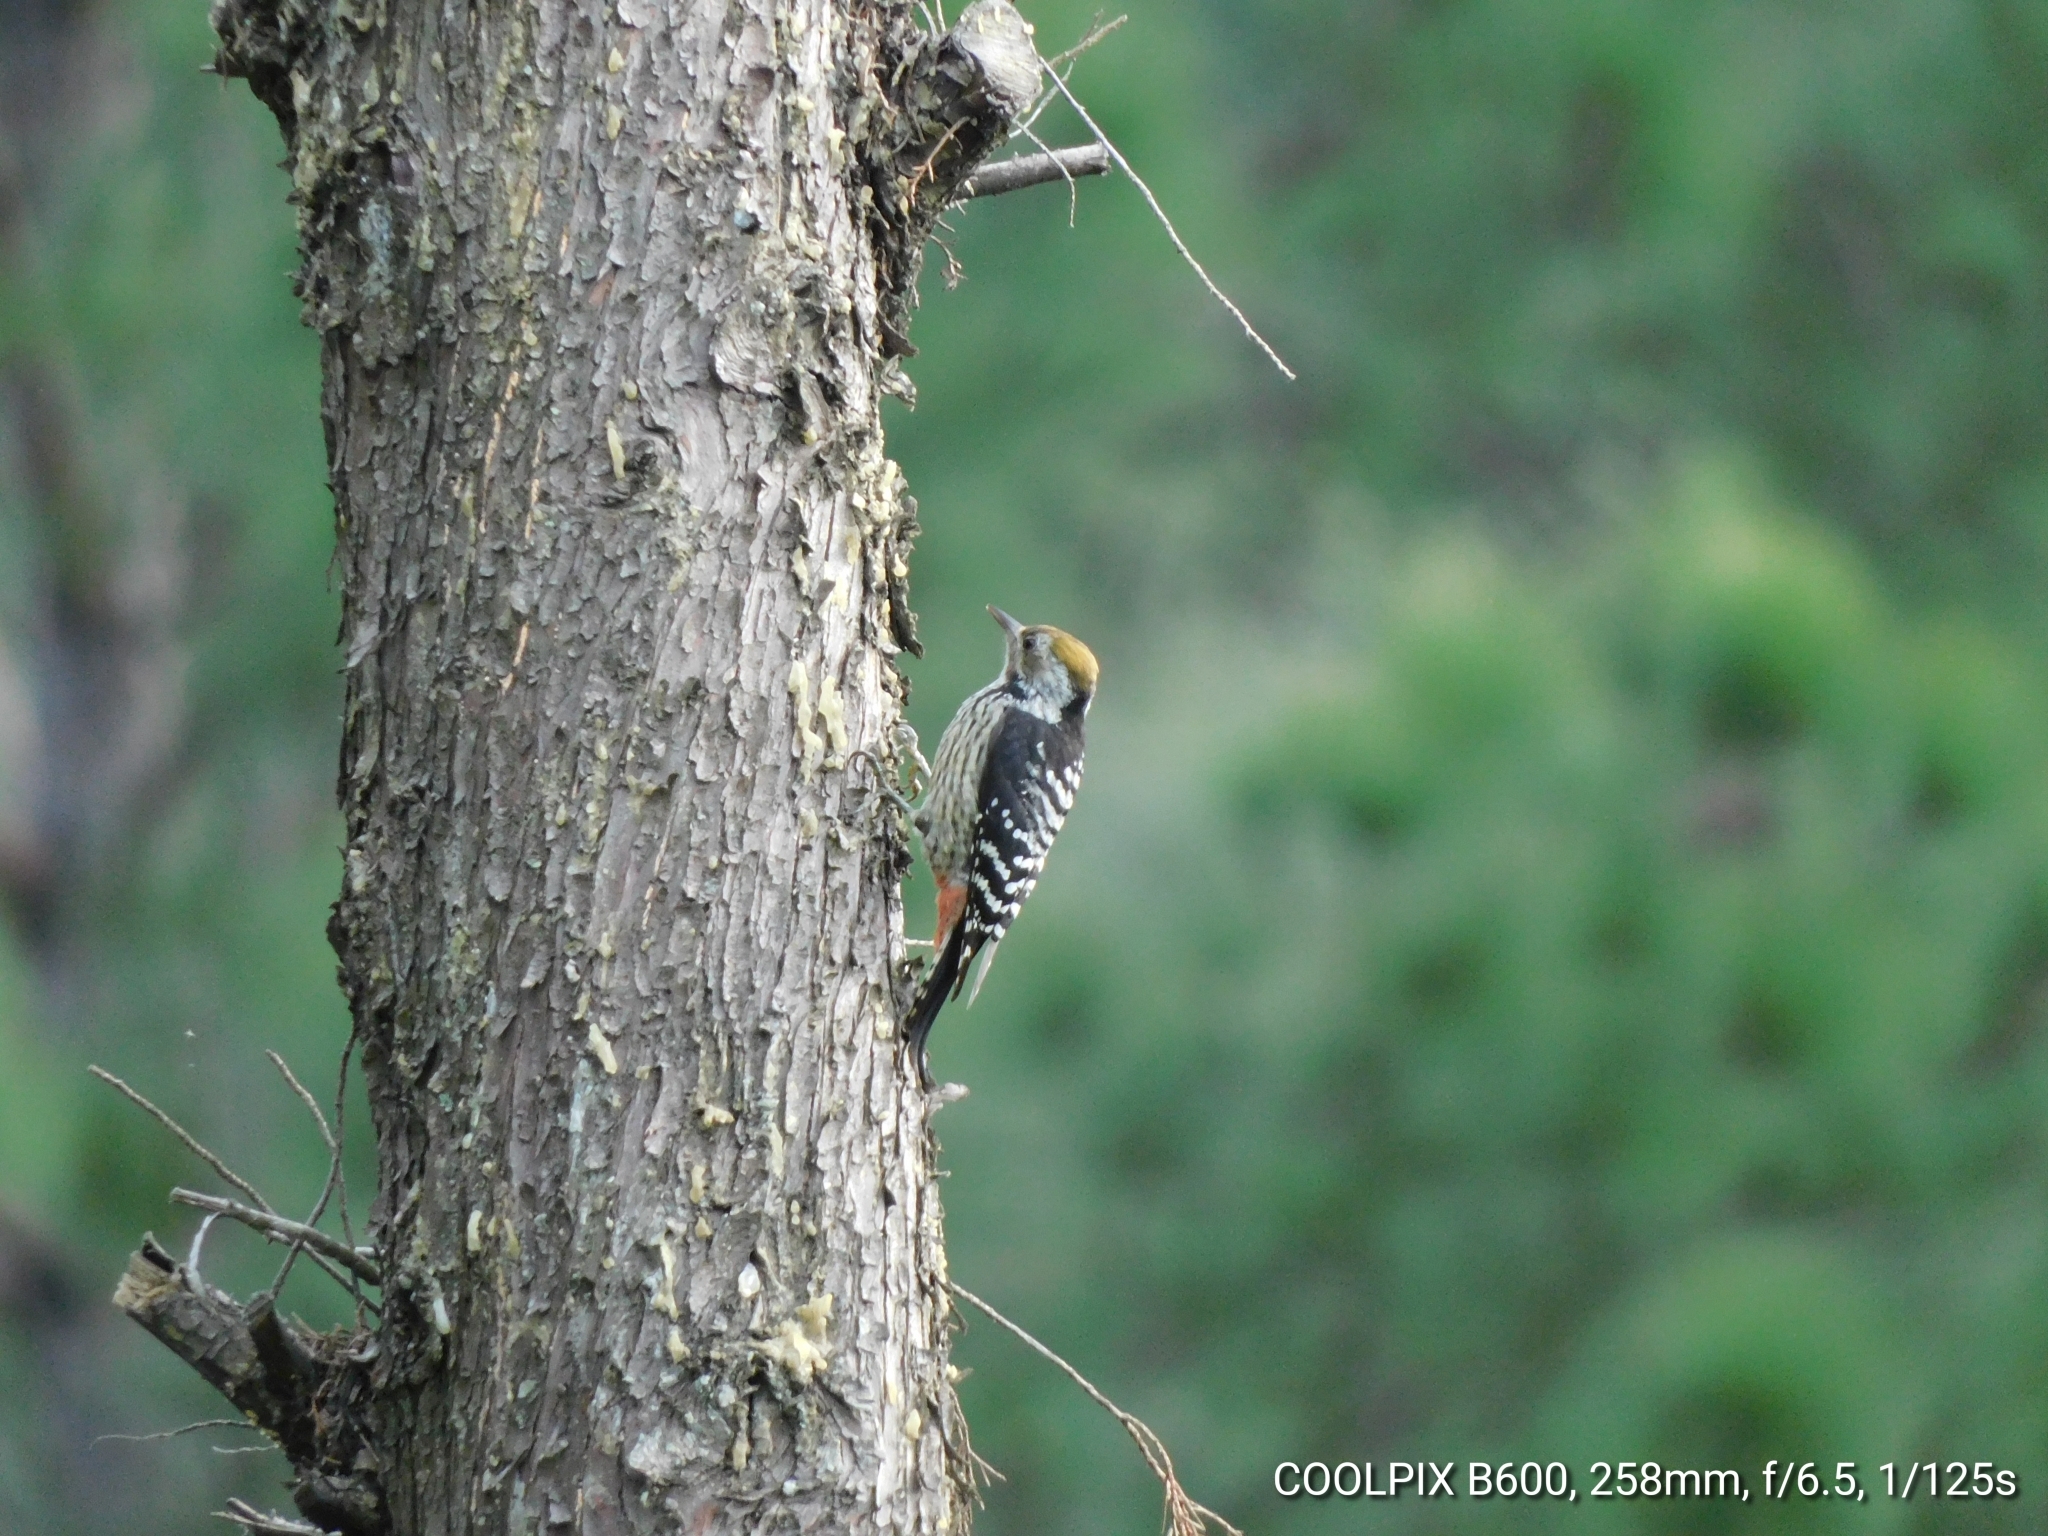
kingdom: Animalia
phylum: Chordata
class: Aves
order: Piciformes
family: Picidae
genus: Dendrocoptes
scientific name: Dendrocoptes auriceps
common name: Brown-fronted woodpecker
